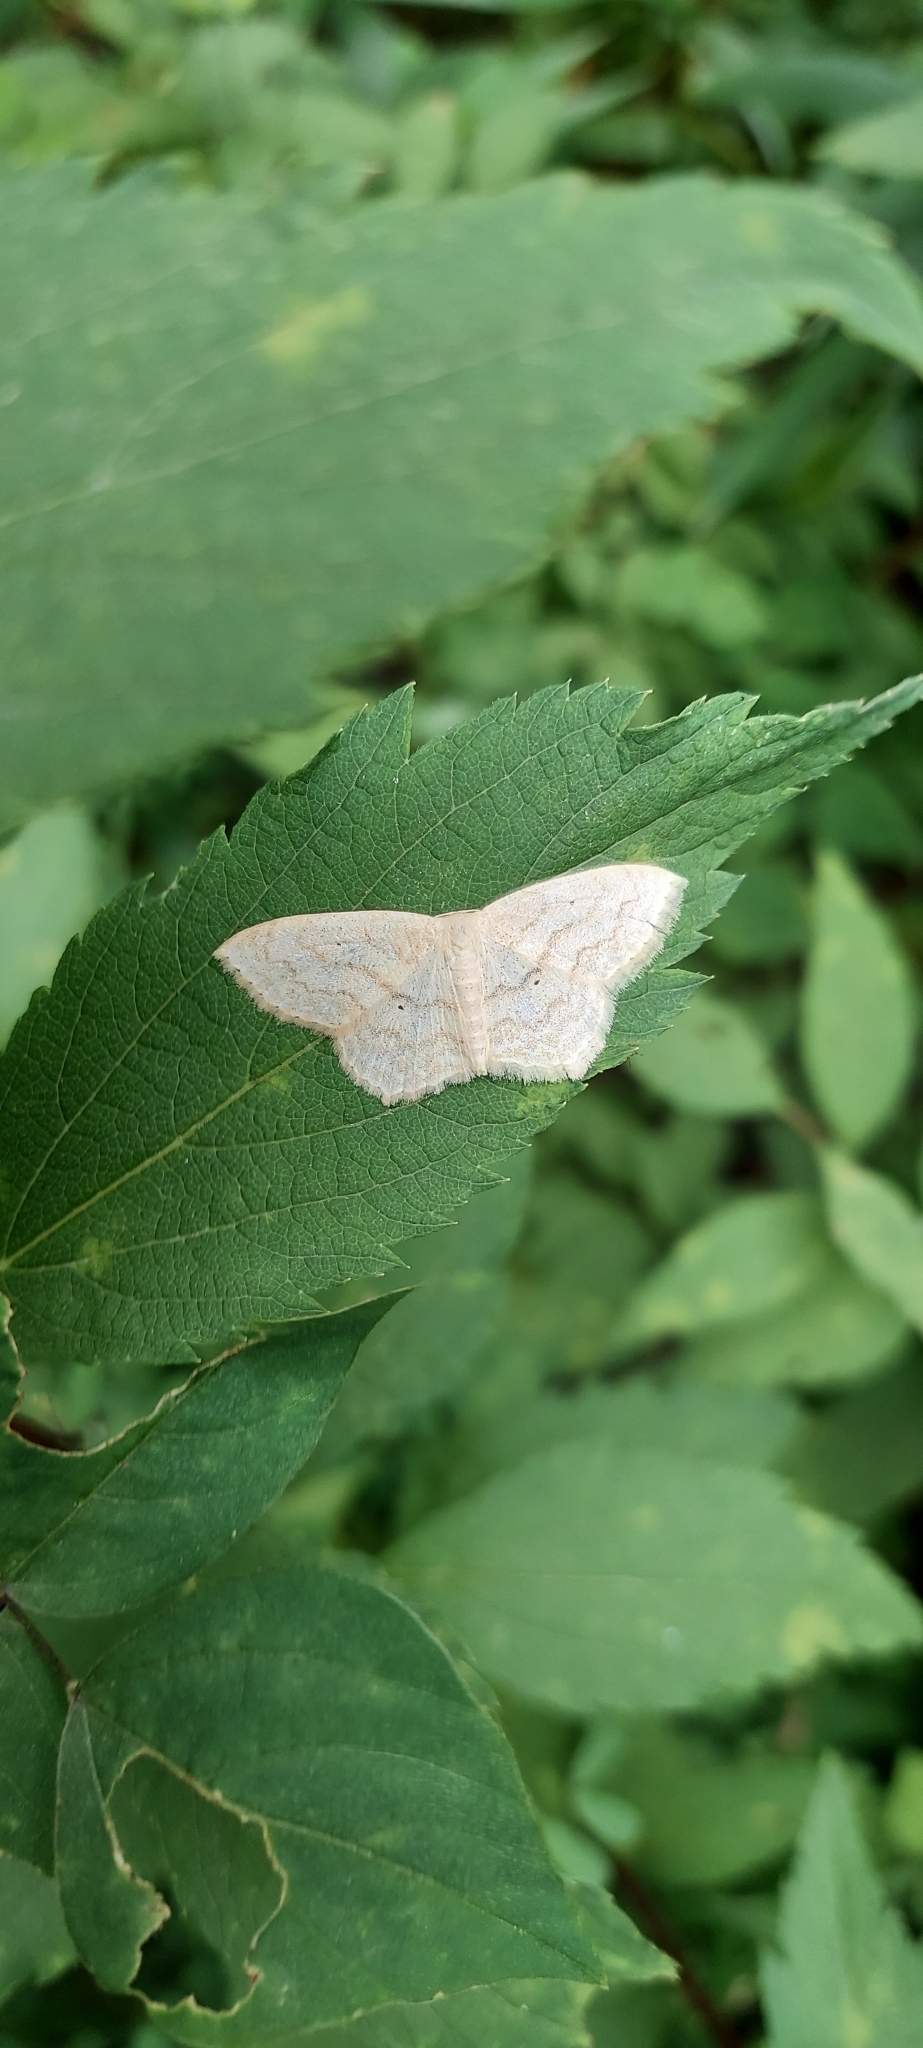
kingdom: Animalia
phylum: Arthropoda
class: Insecta
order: Lepidoptera
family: Geometridae
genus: Scopula
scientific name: Scopula limboundata
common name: Large lace border
